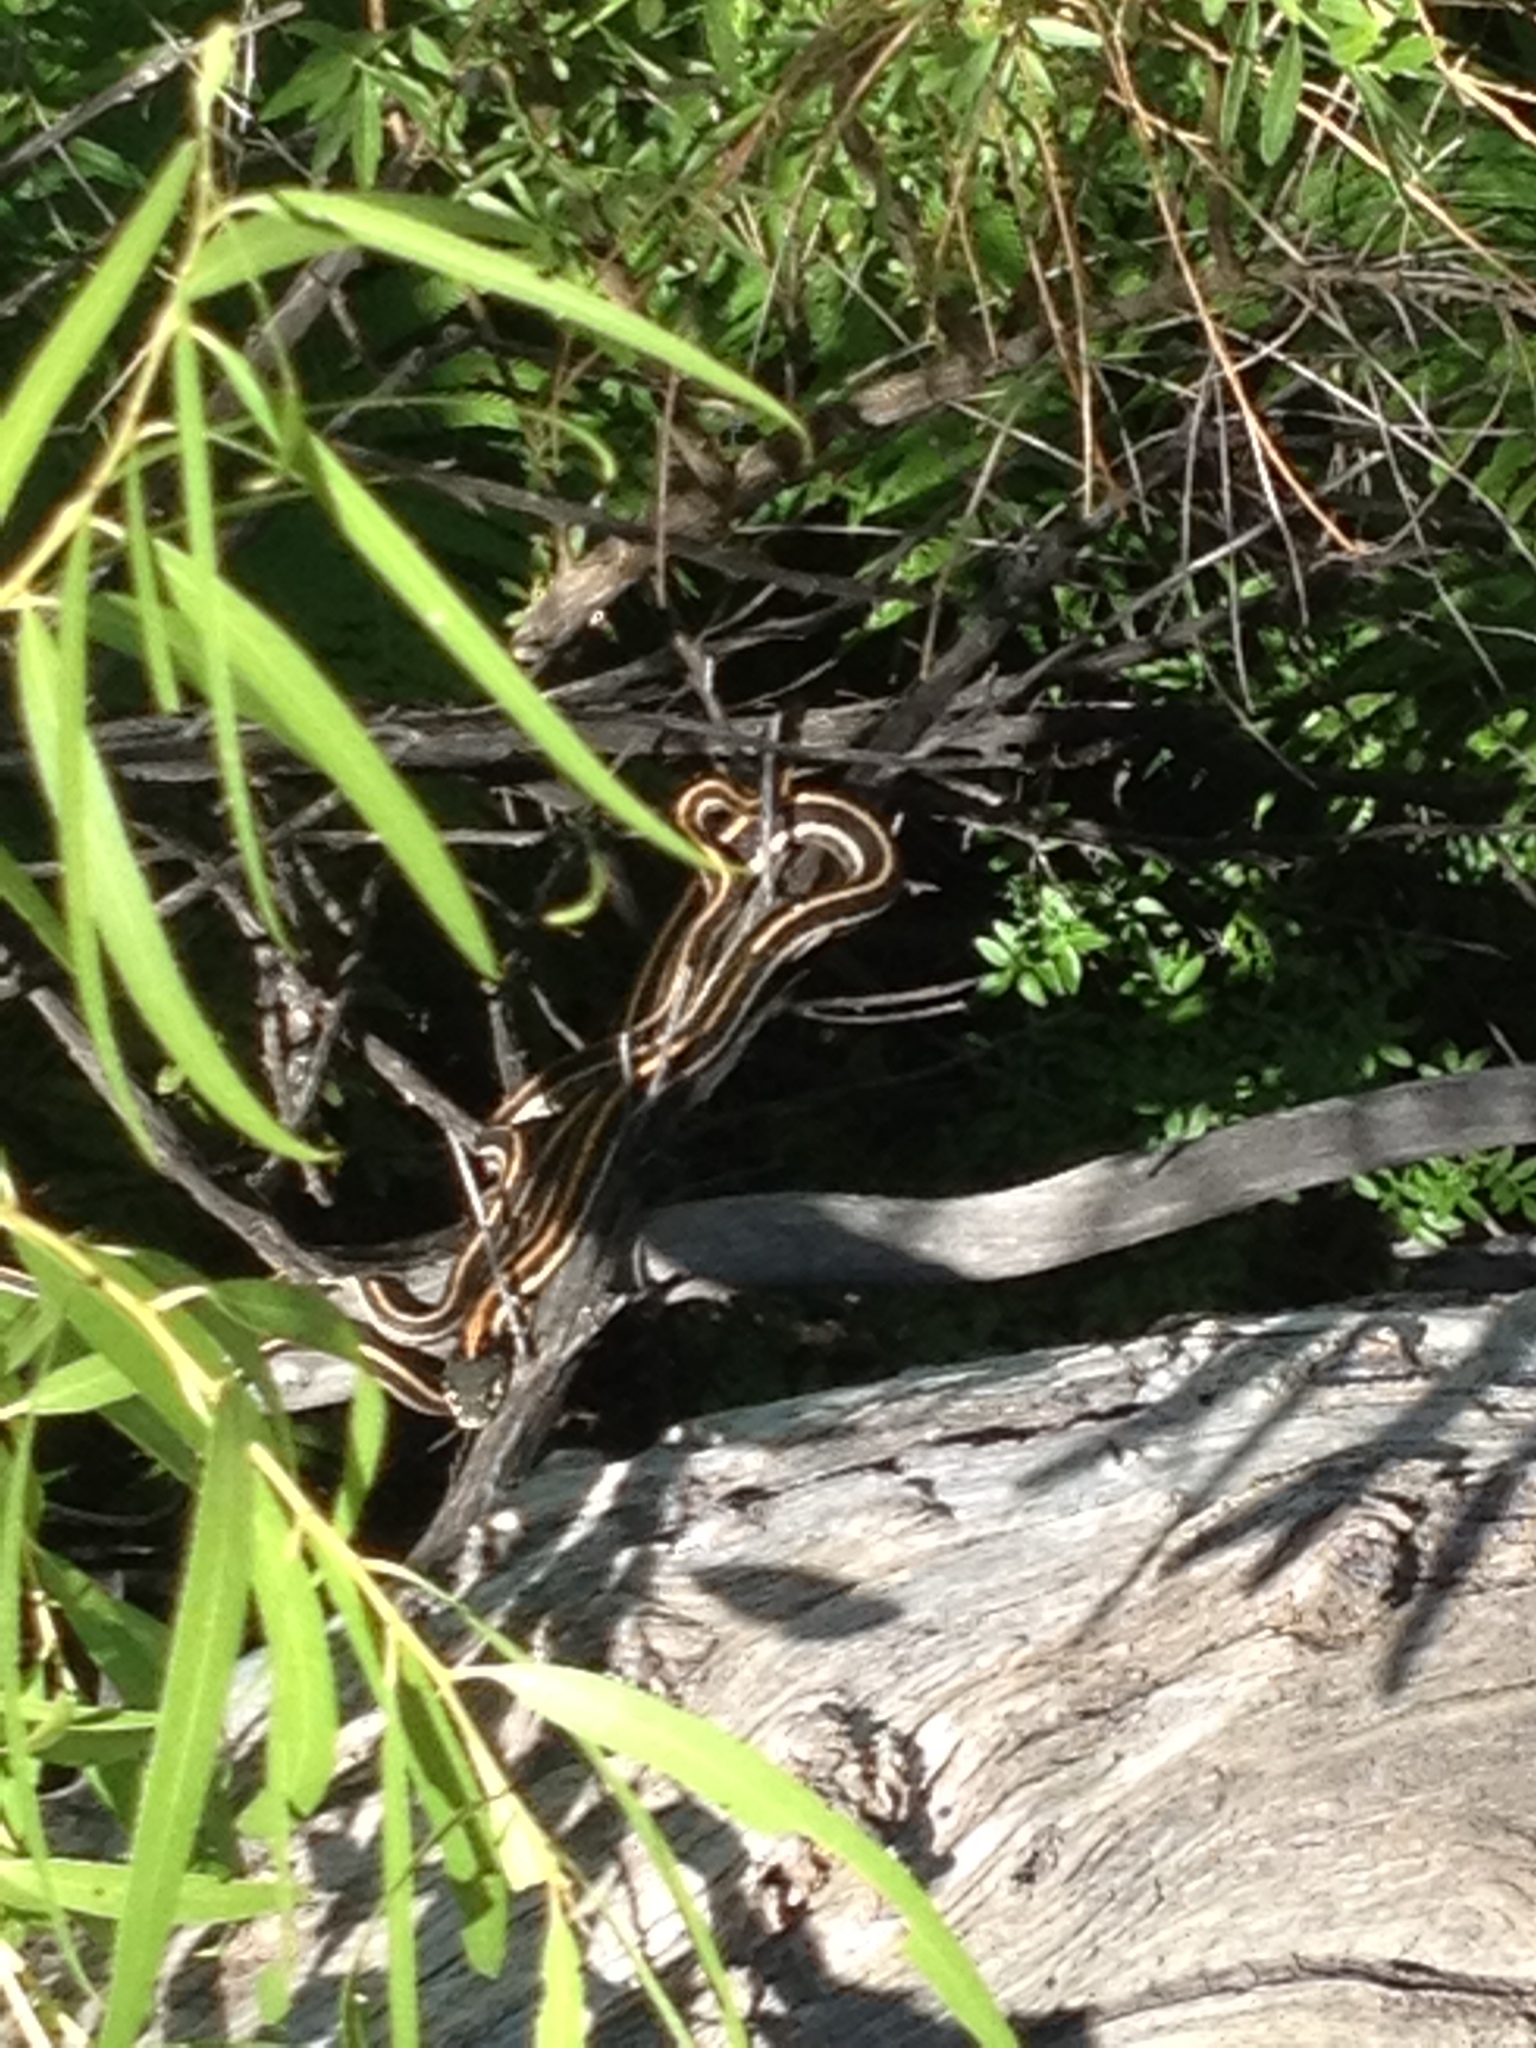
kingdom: Animalia
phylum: Chordata
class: Squamata
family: Colubridae
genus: Thamnophis
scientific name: Thamnophis cyrtopsis
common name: Black-necked gartersnake
